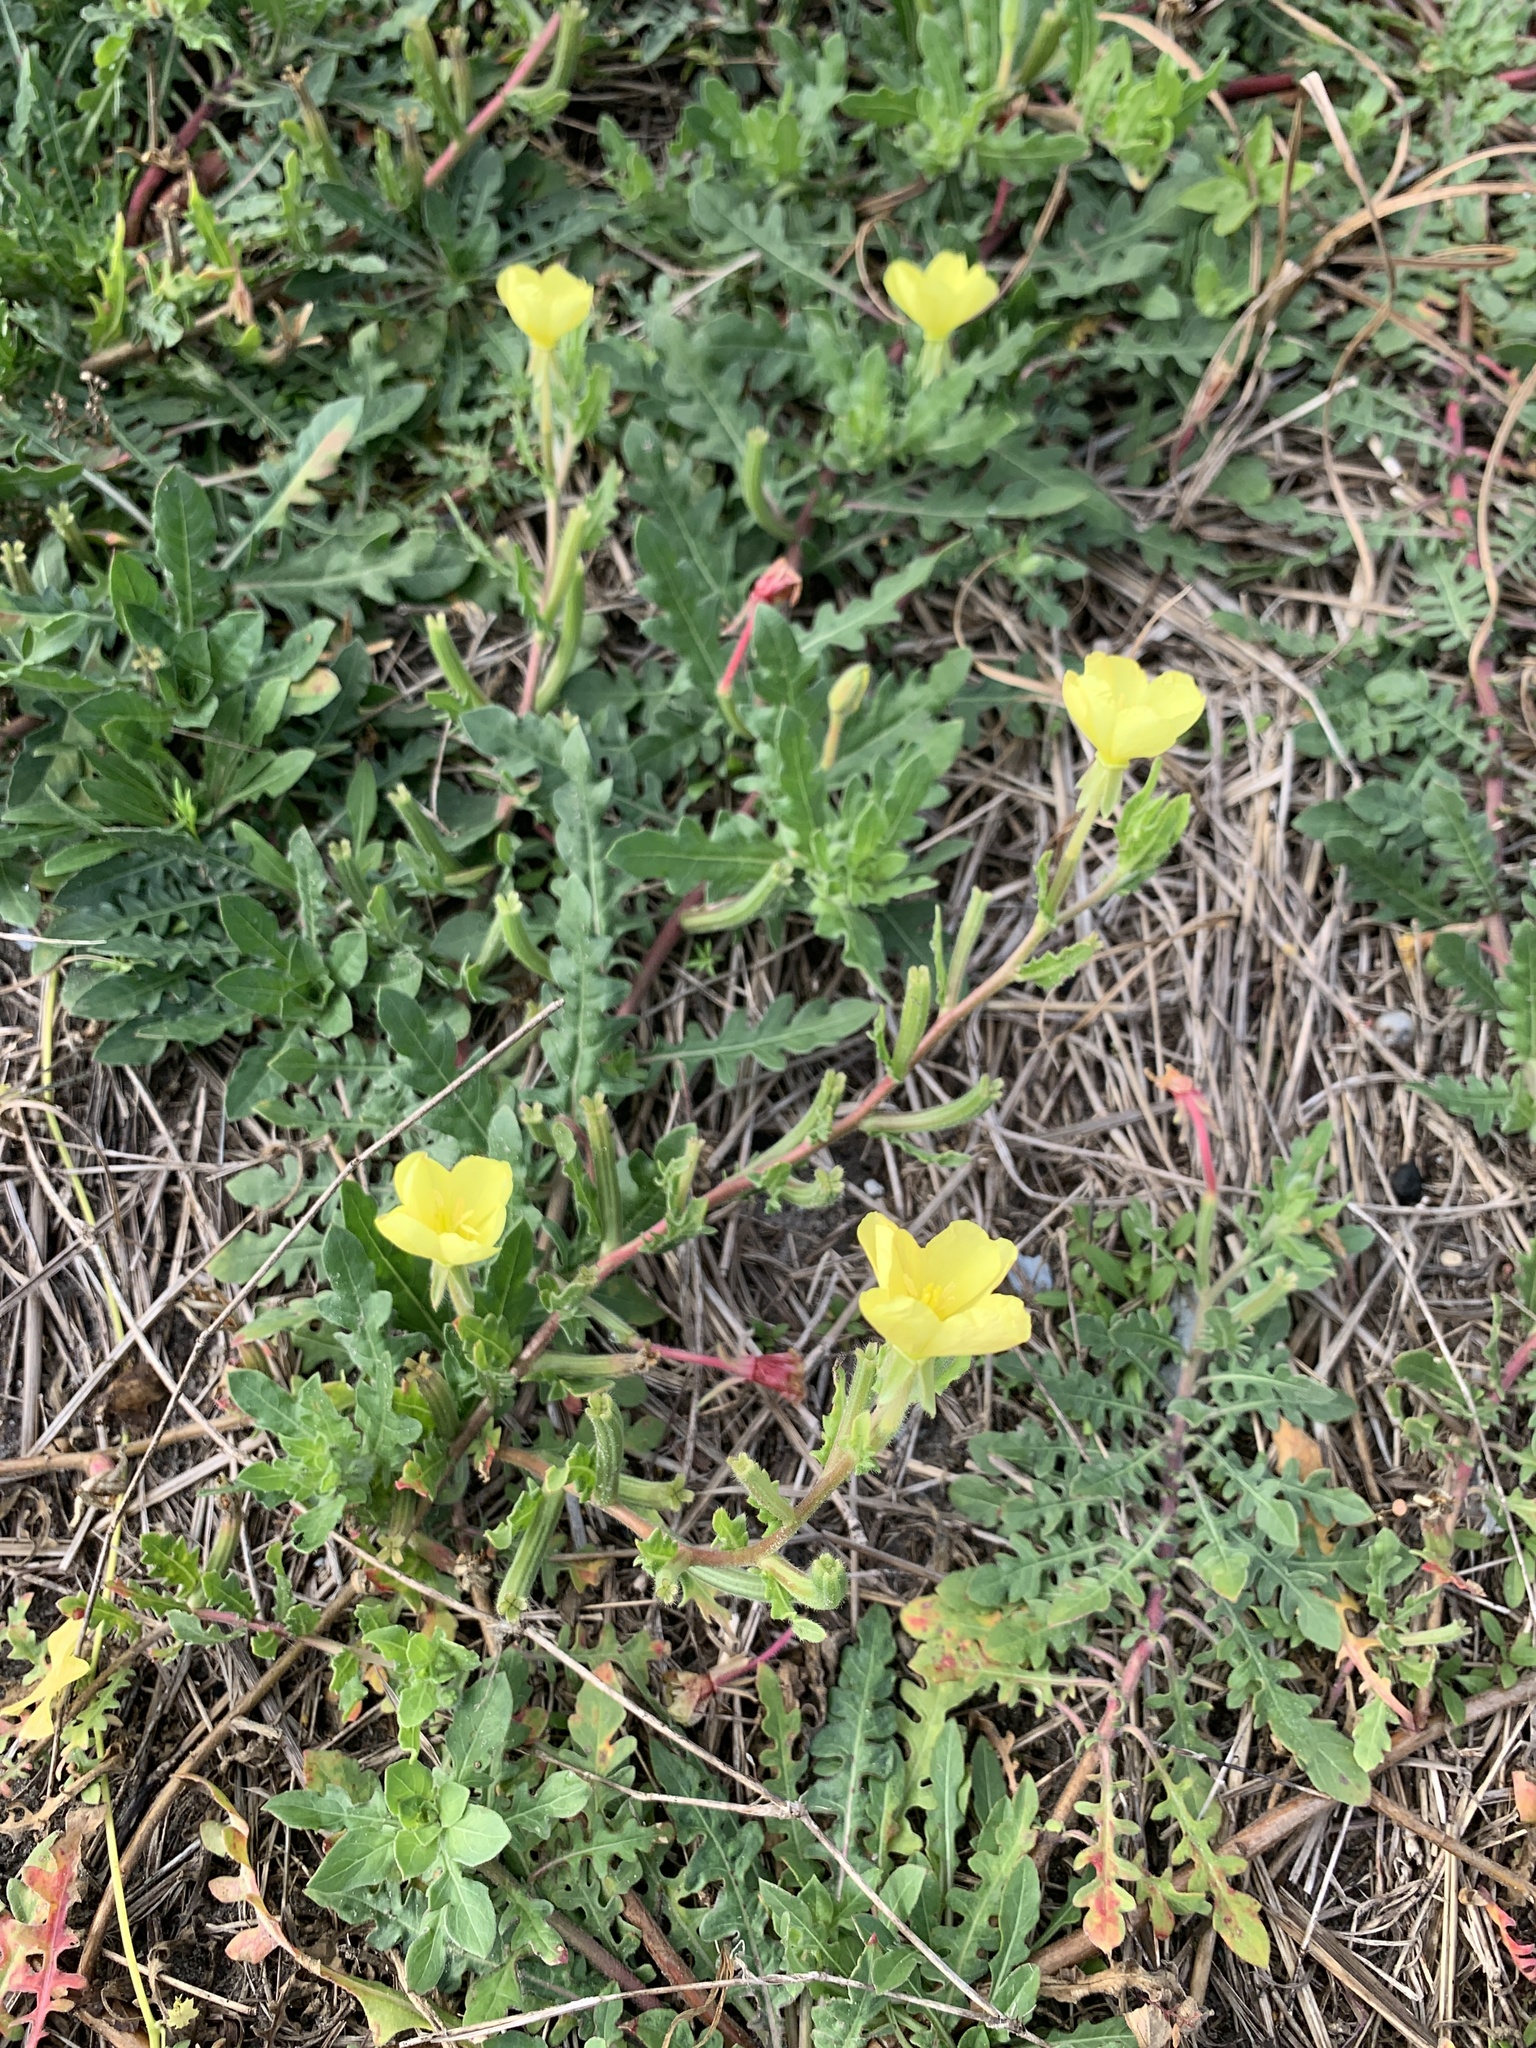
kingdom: Plantae
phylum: Tracheophyta
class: Magnoliopsida
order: Myrtales
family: Onagraceae
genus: Oenothera
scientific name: Oenothera humifusa
